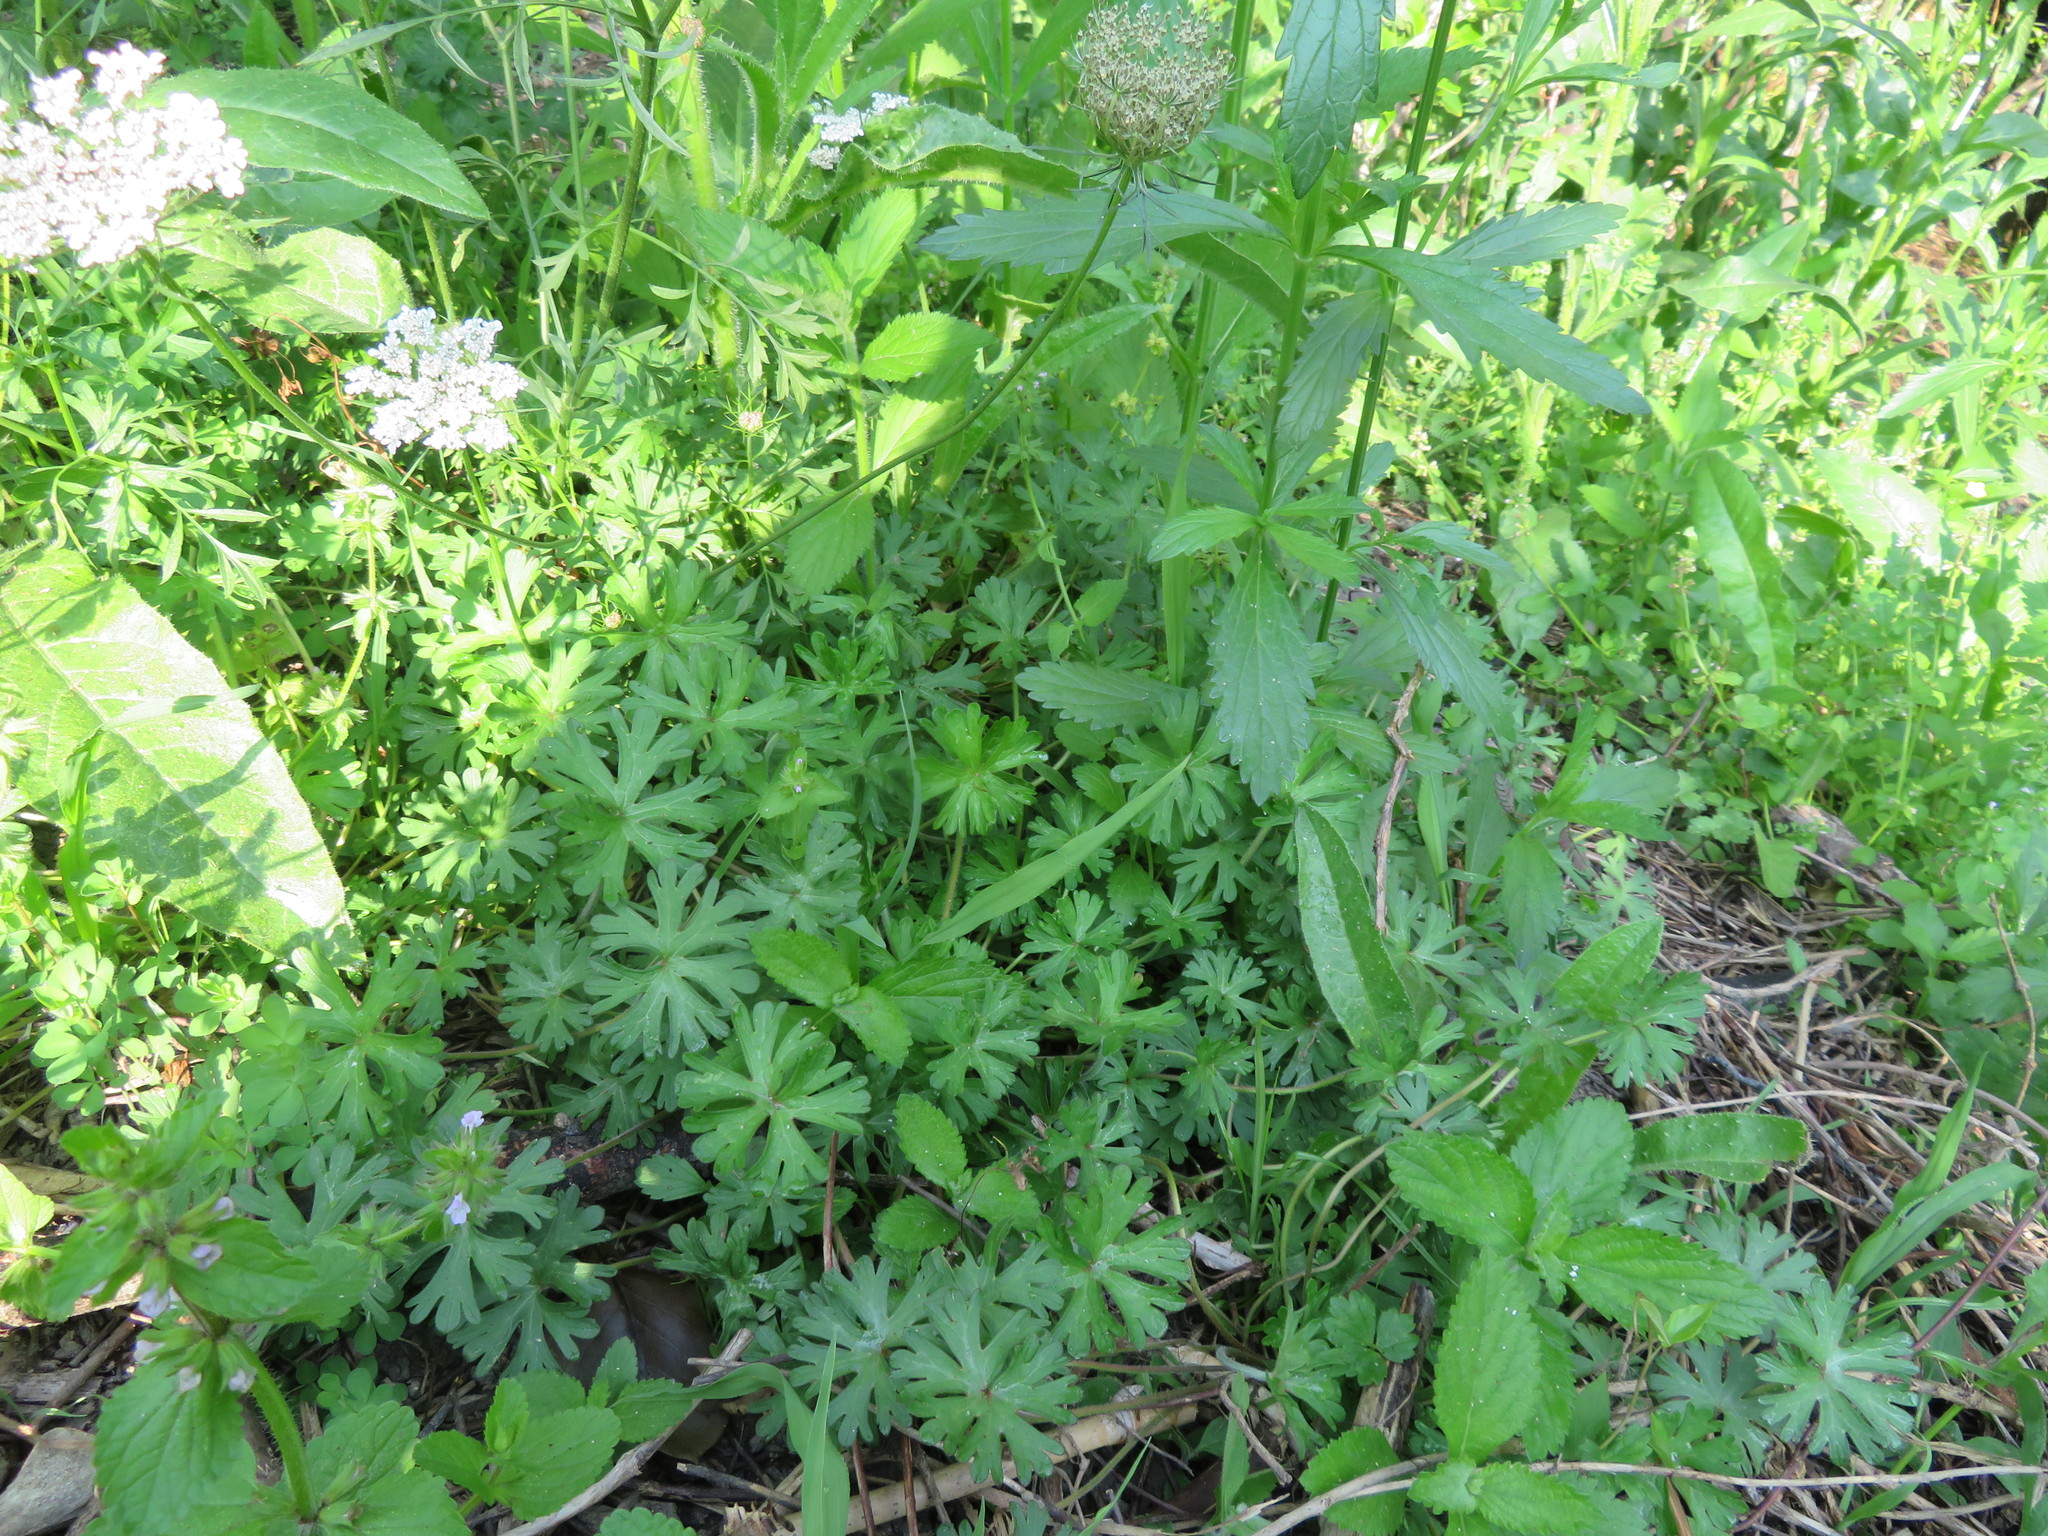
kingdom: Plantae
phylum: Tracheophyta
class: Magnoliopsida
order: Geraniales
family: Geraniaceae
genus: Geranium
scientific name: Geranium dissectum
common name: Cut-leaved crane's-bill
